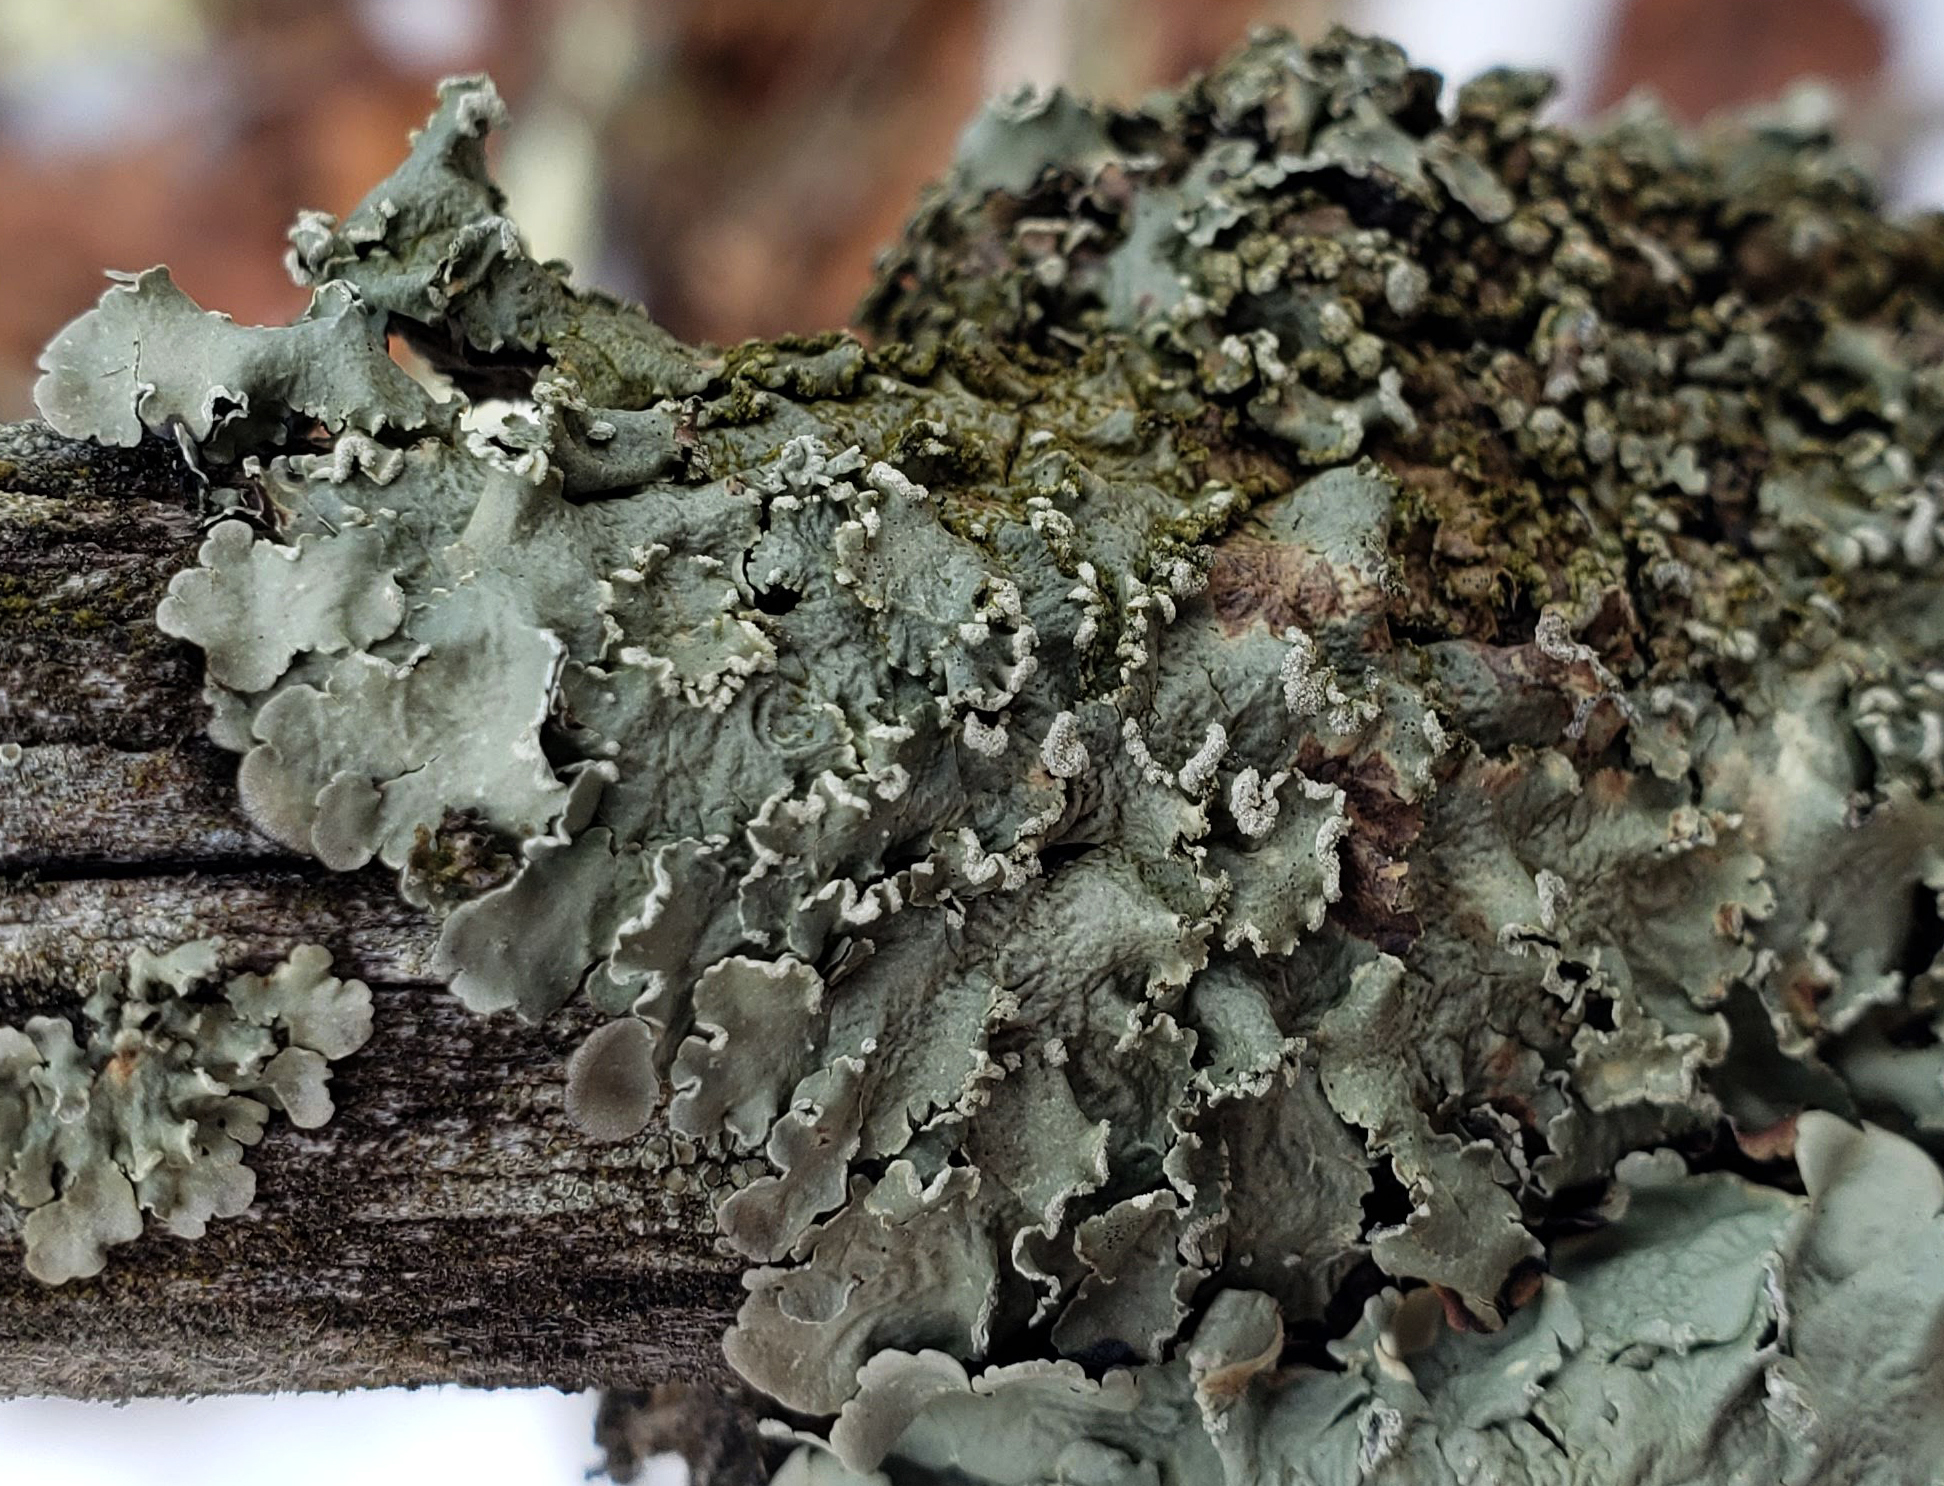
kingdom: Fungi
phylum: Ascomycota
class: Lecanoromycetes
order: Lecanorales
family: Parmeliaceae
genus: Flavopunctelia
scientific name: Flavopunctelia soredica
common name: Powder-edged speckled greenshield
